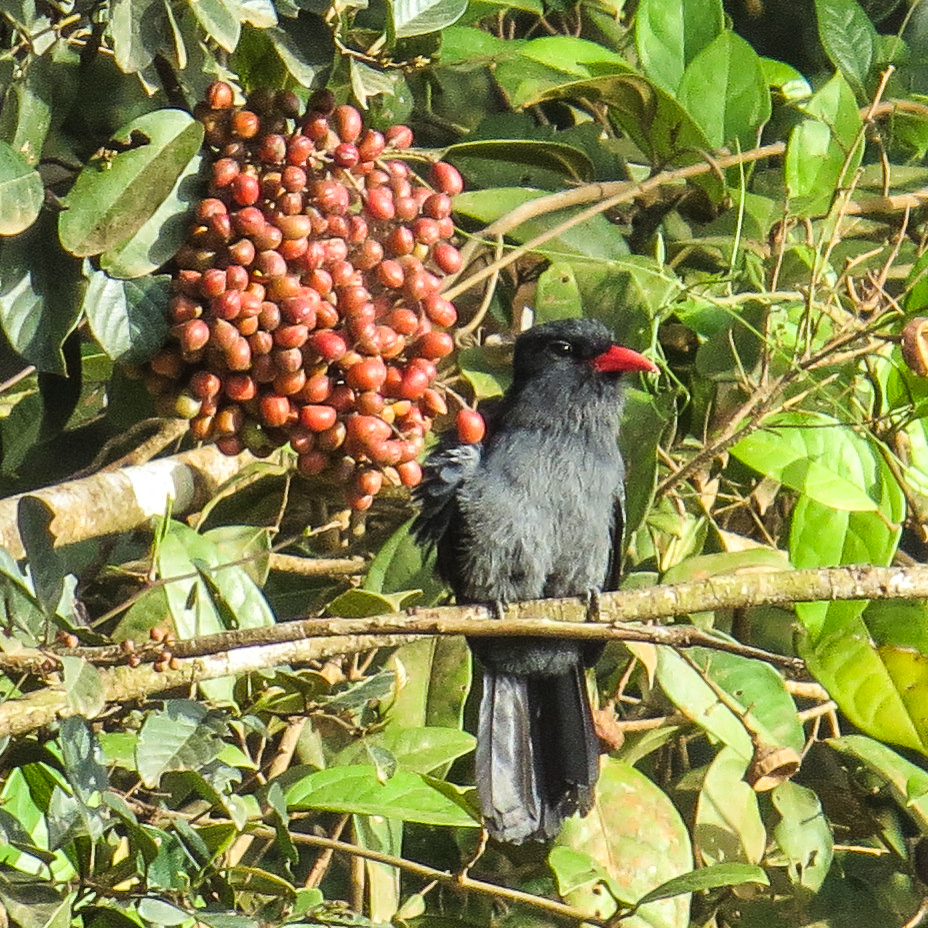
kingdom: Animalia
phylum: Chordata
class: Aves
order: Piciformes
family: Bucconidae
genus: Monasa
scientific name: Monasa atra
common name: Black nunbird
